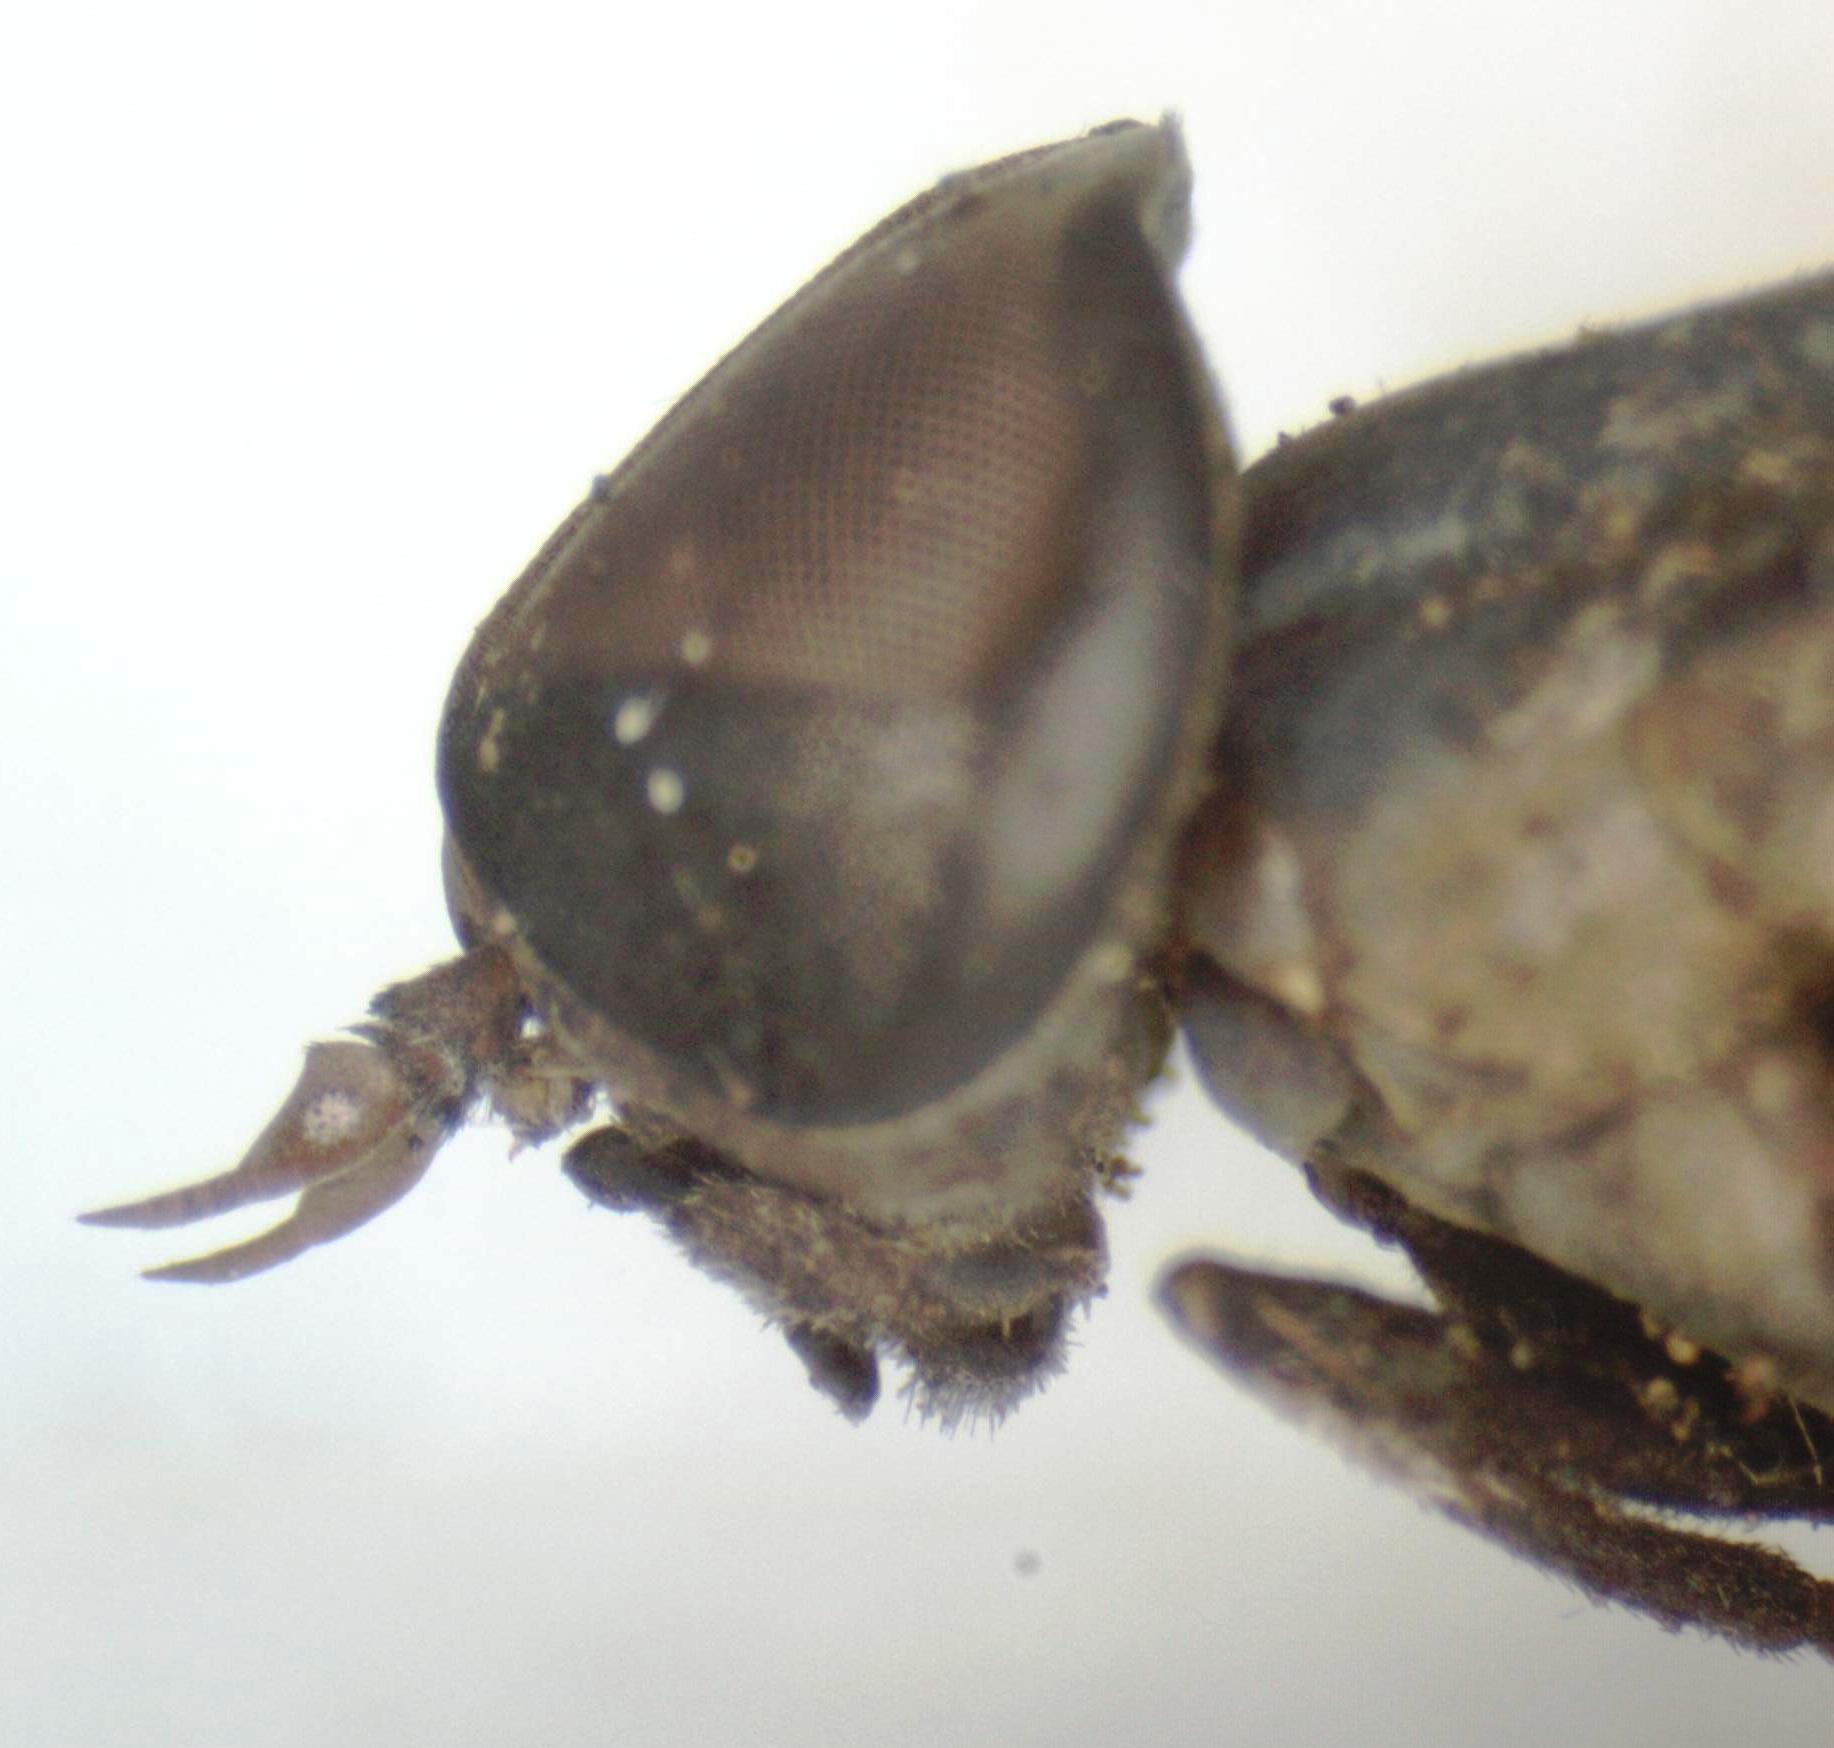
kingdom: Animalia
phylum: Arthropoda
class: Insecta
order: Diptera
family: Tabanidae
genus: Leucotabanus
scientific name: Leucotabanus exaestuans
